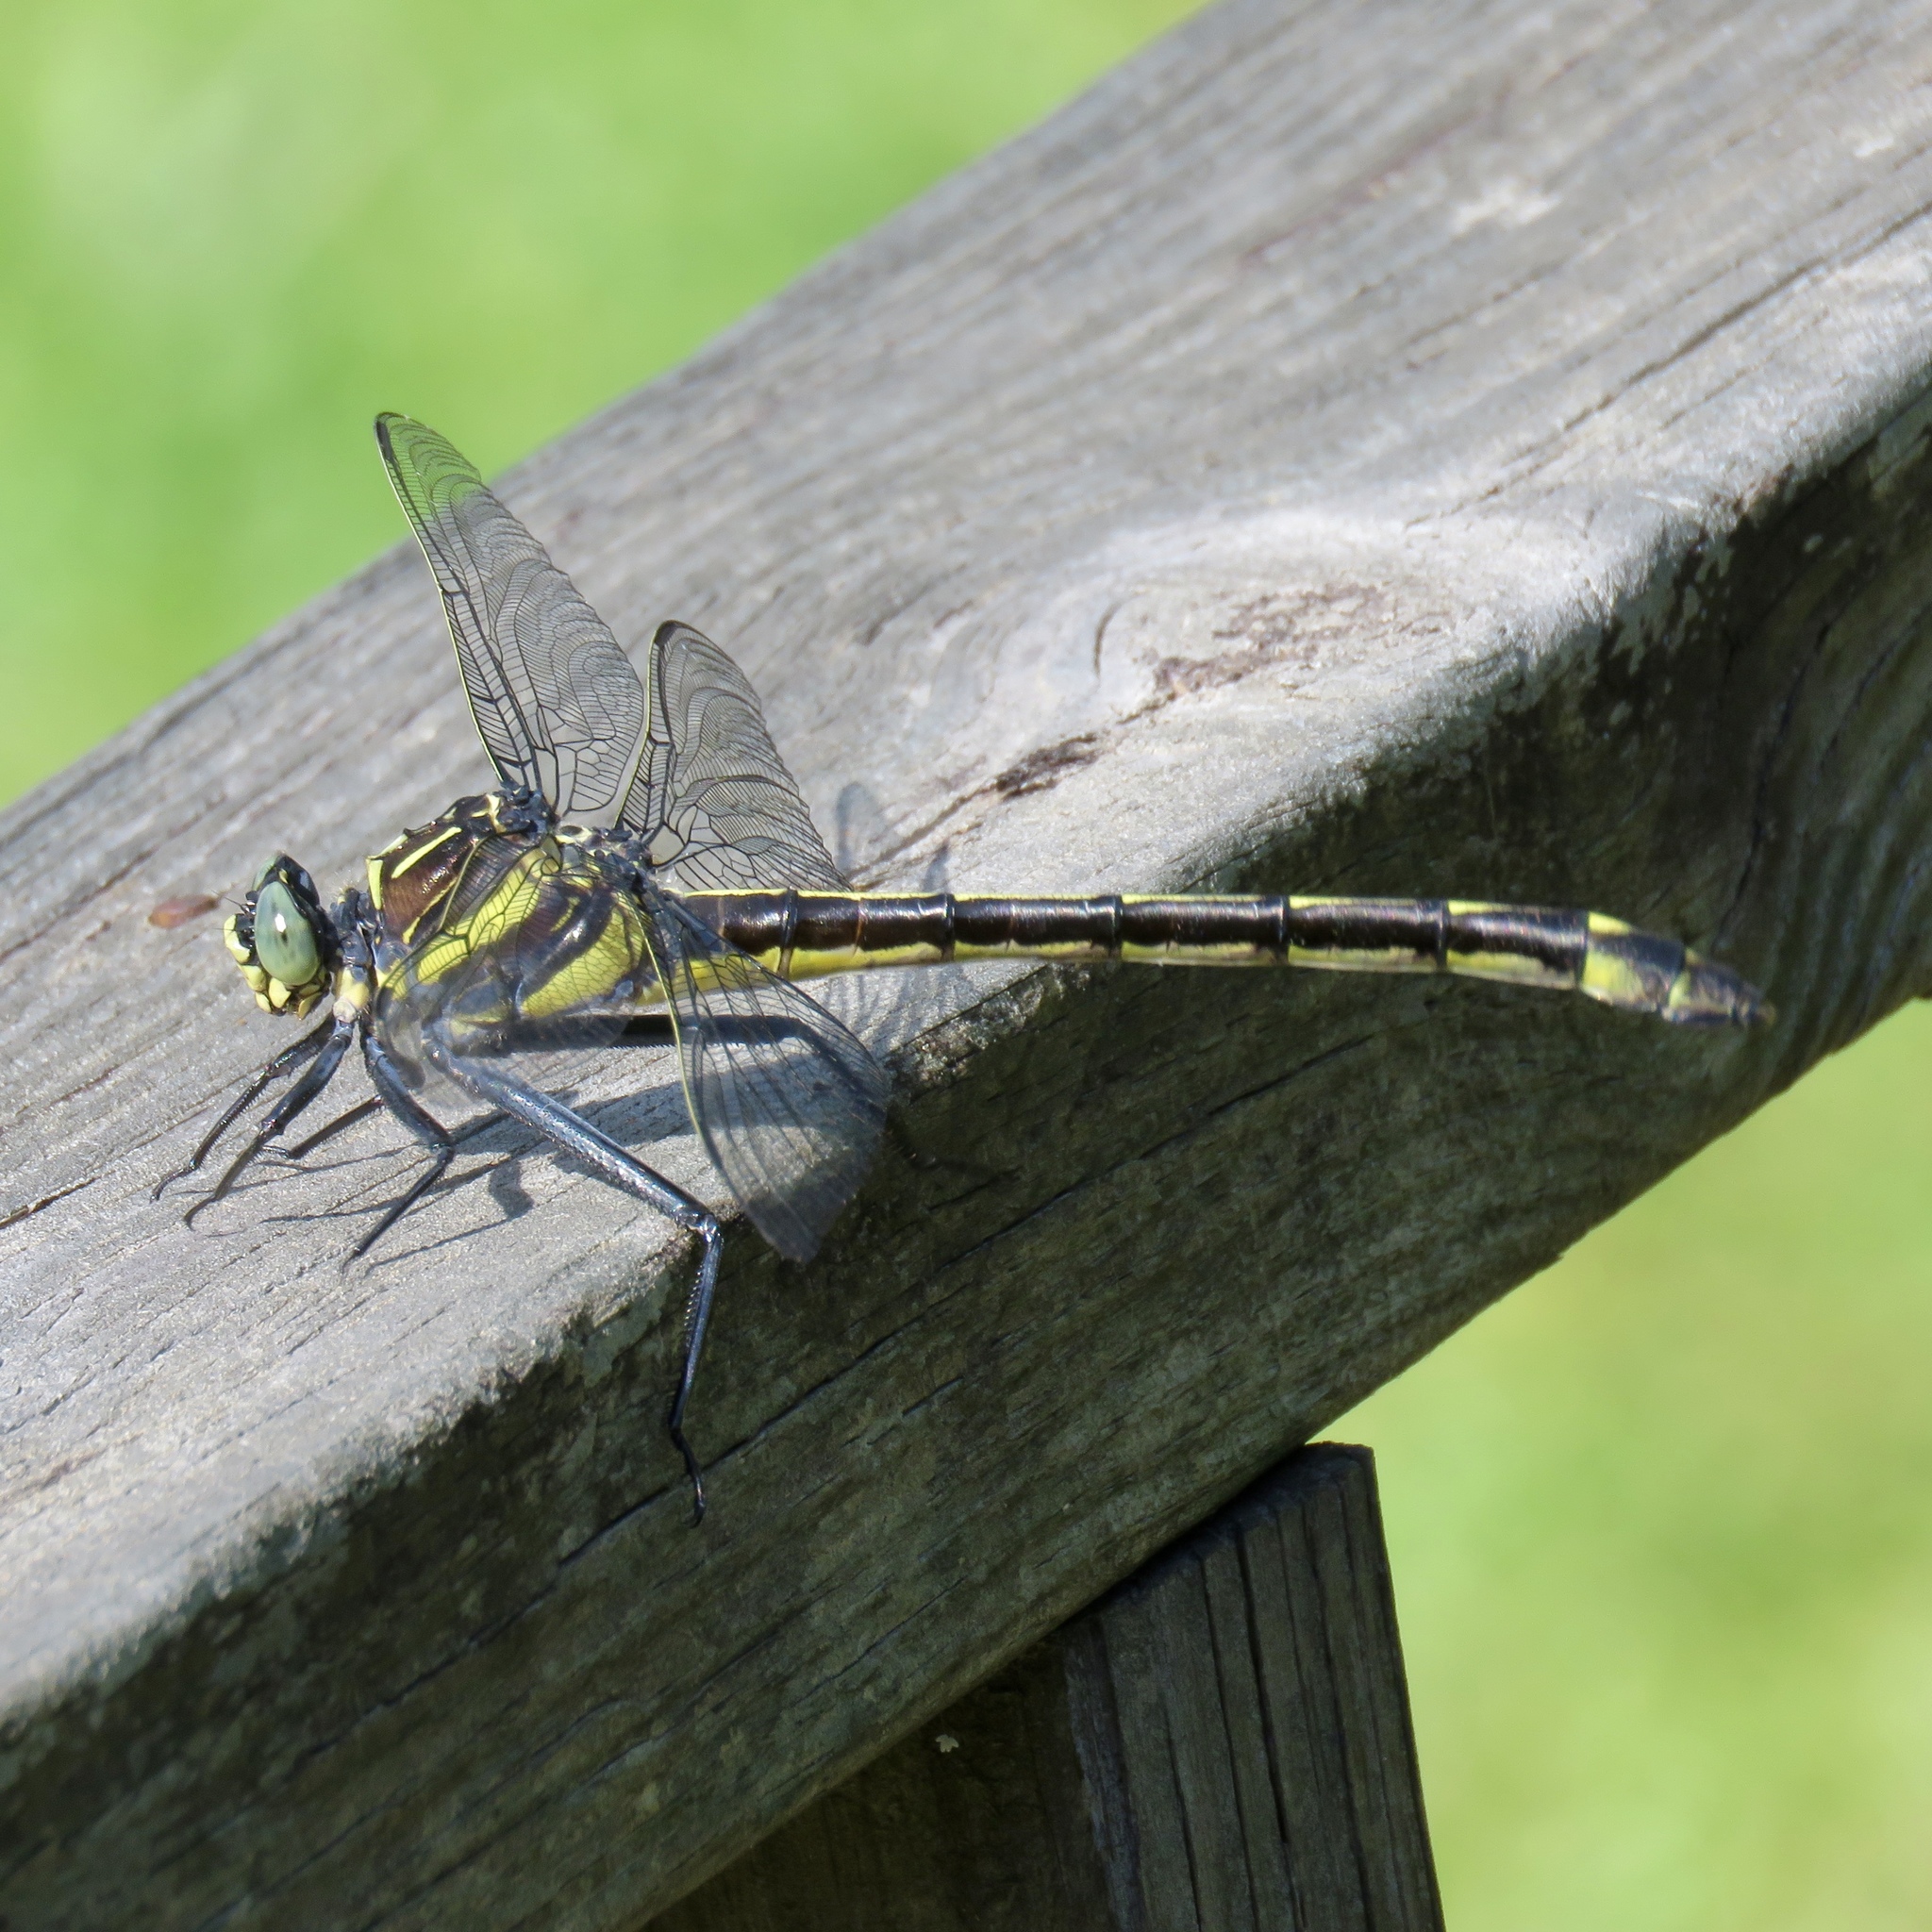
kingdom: Animalia
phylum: Arthropoda
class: Insecta
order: Odonata
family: Gomphidae
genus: Hagenius
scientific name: Hagenius brevistylus
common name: Dragonhunter
